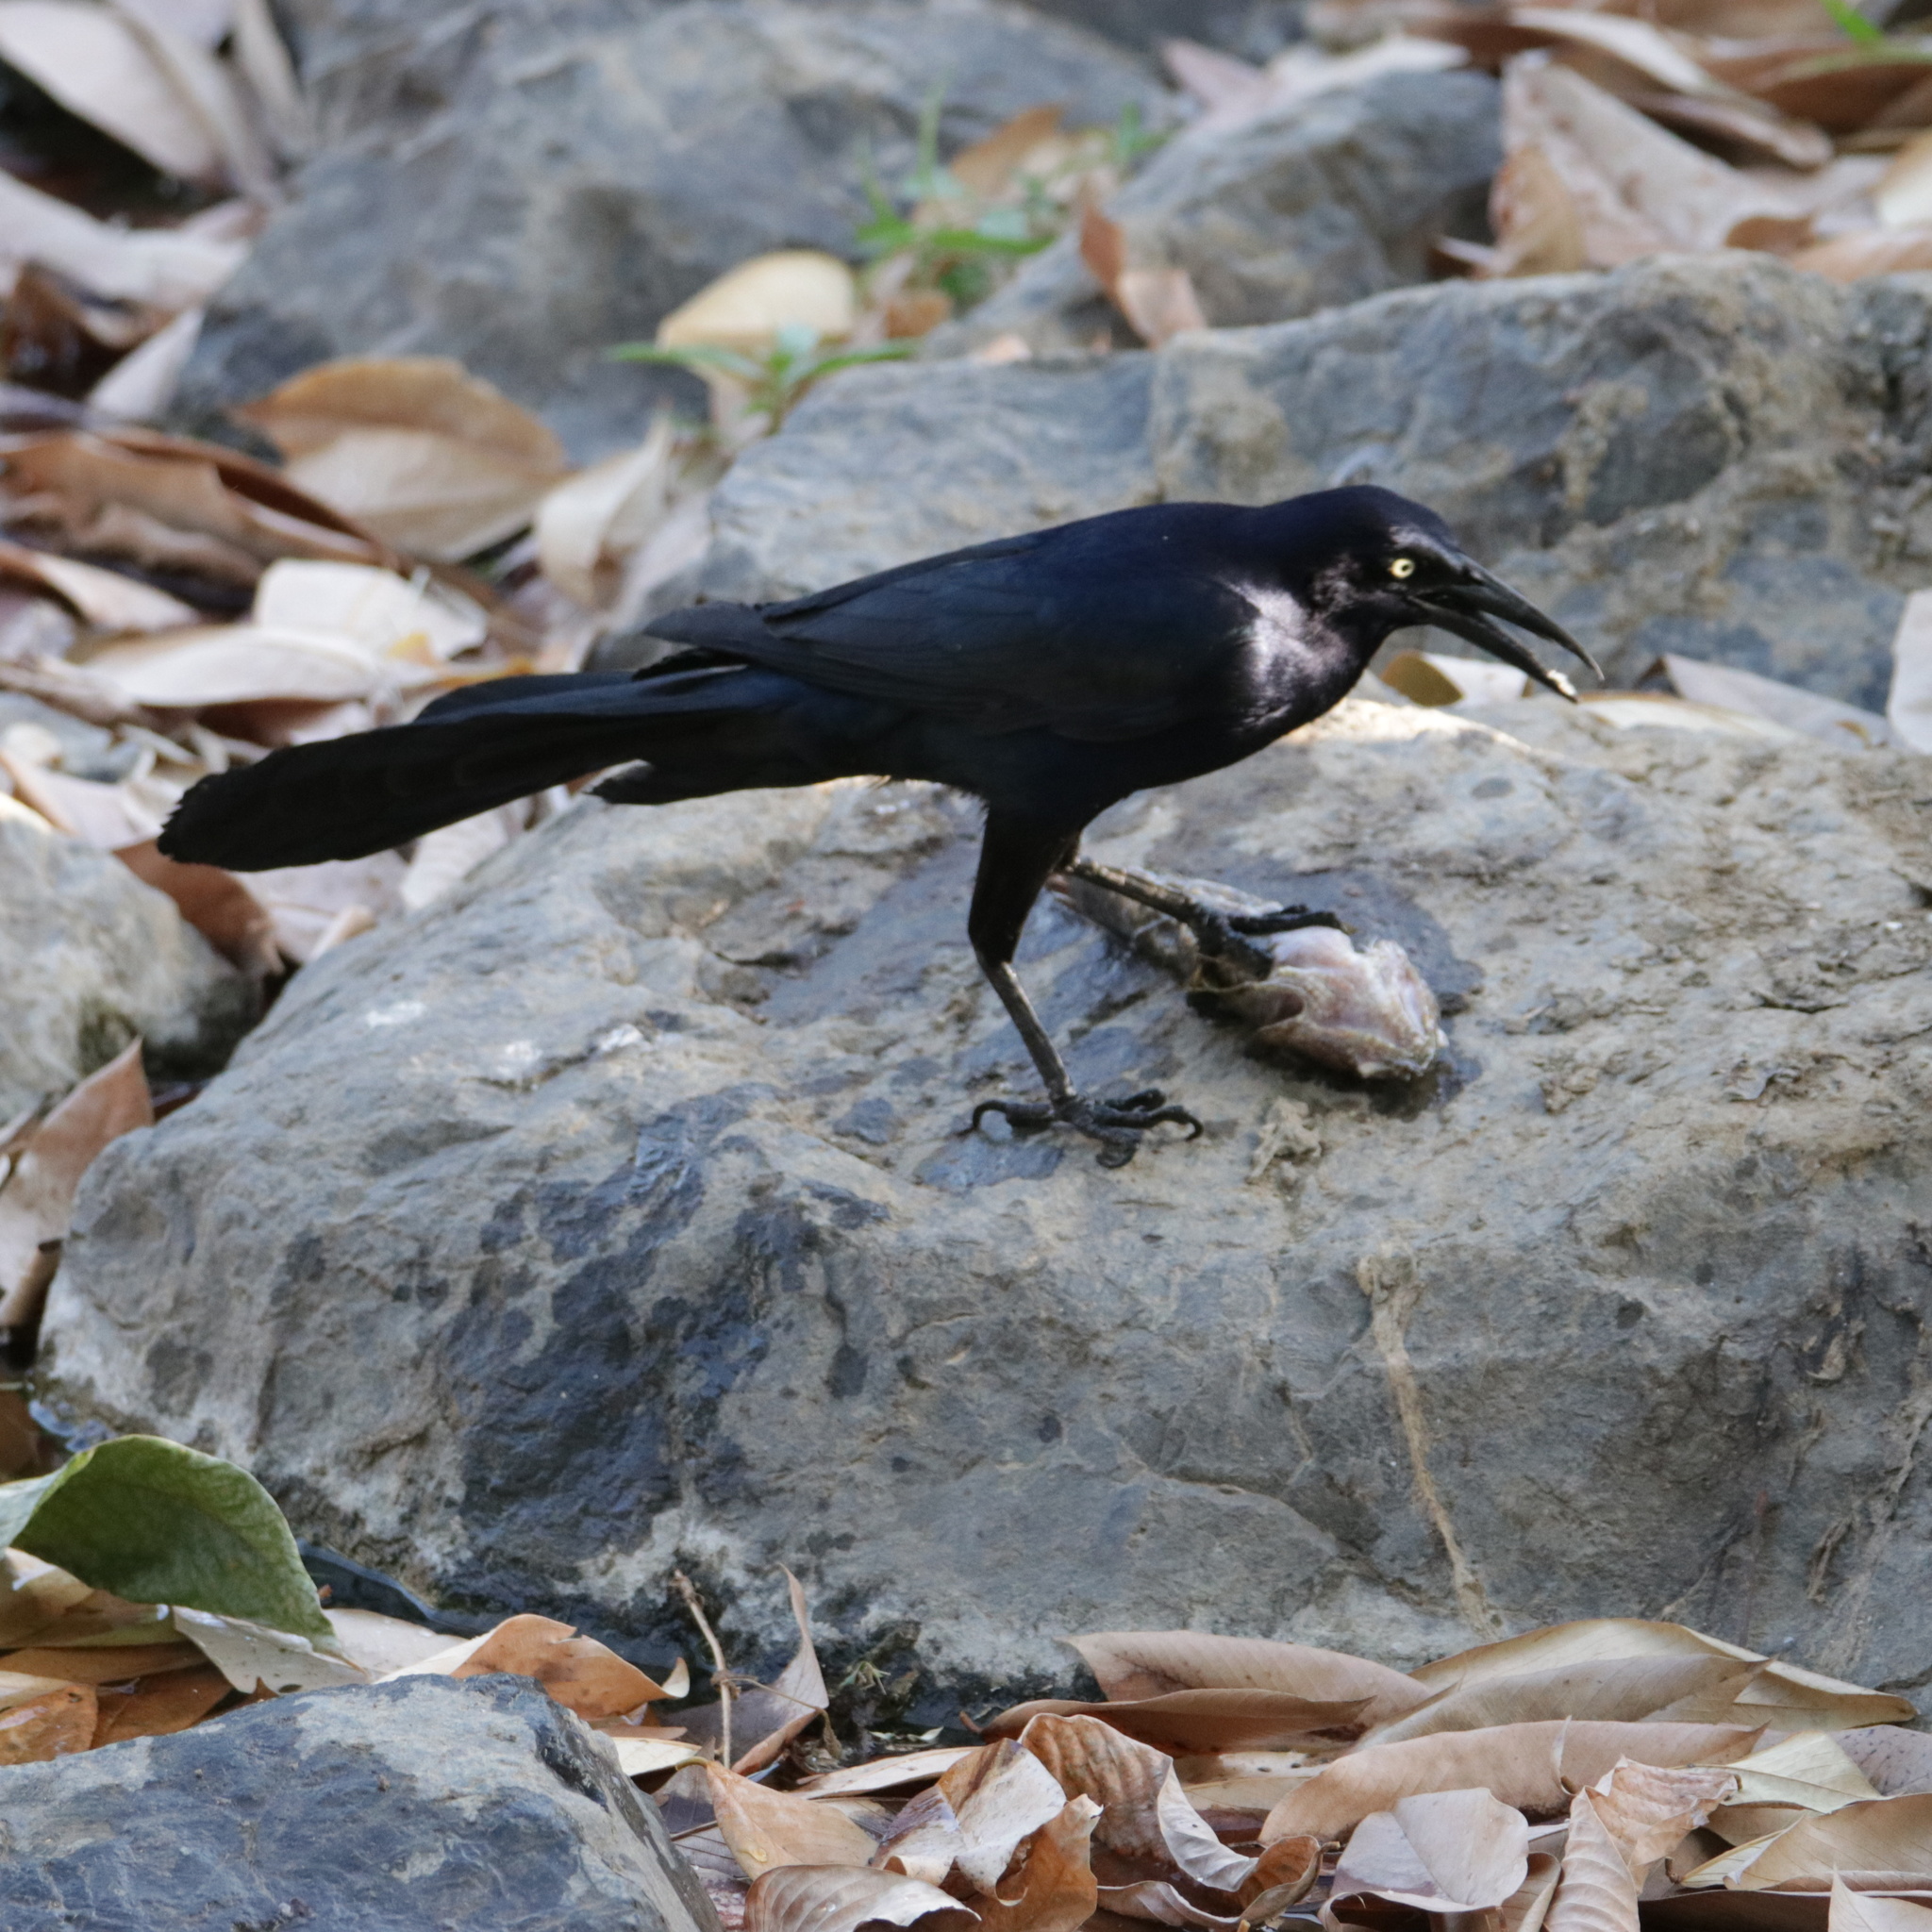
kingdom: Animalia
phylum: Chordata
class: Aves
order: Passeriformes
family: Icteridae
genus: Quiscalus
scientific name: Quiscalus mexicanus
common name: Great-tailed grackle
